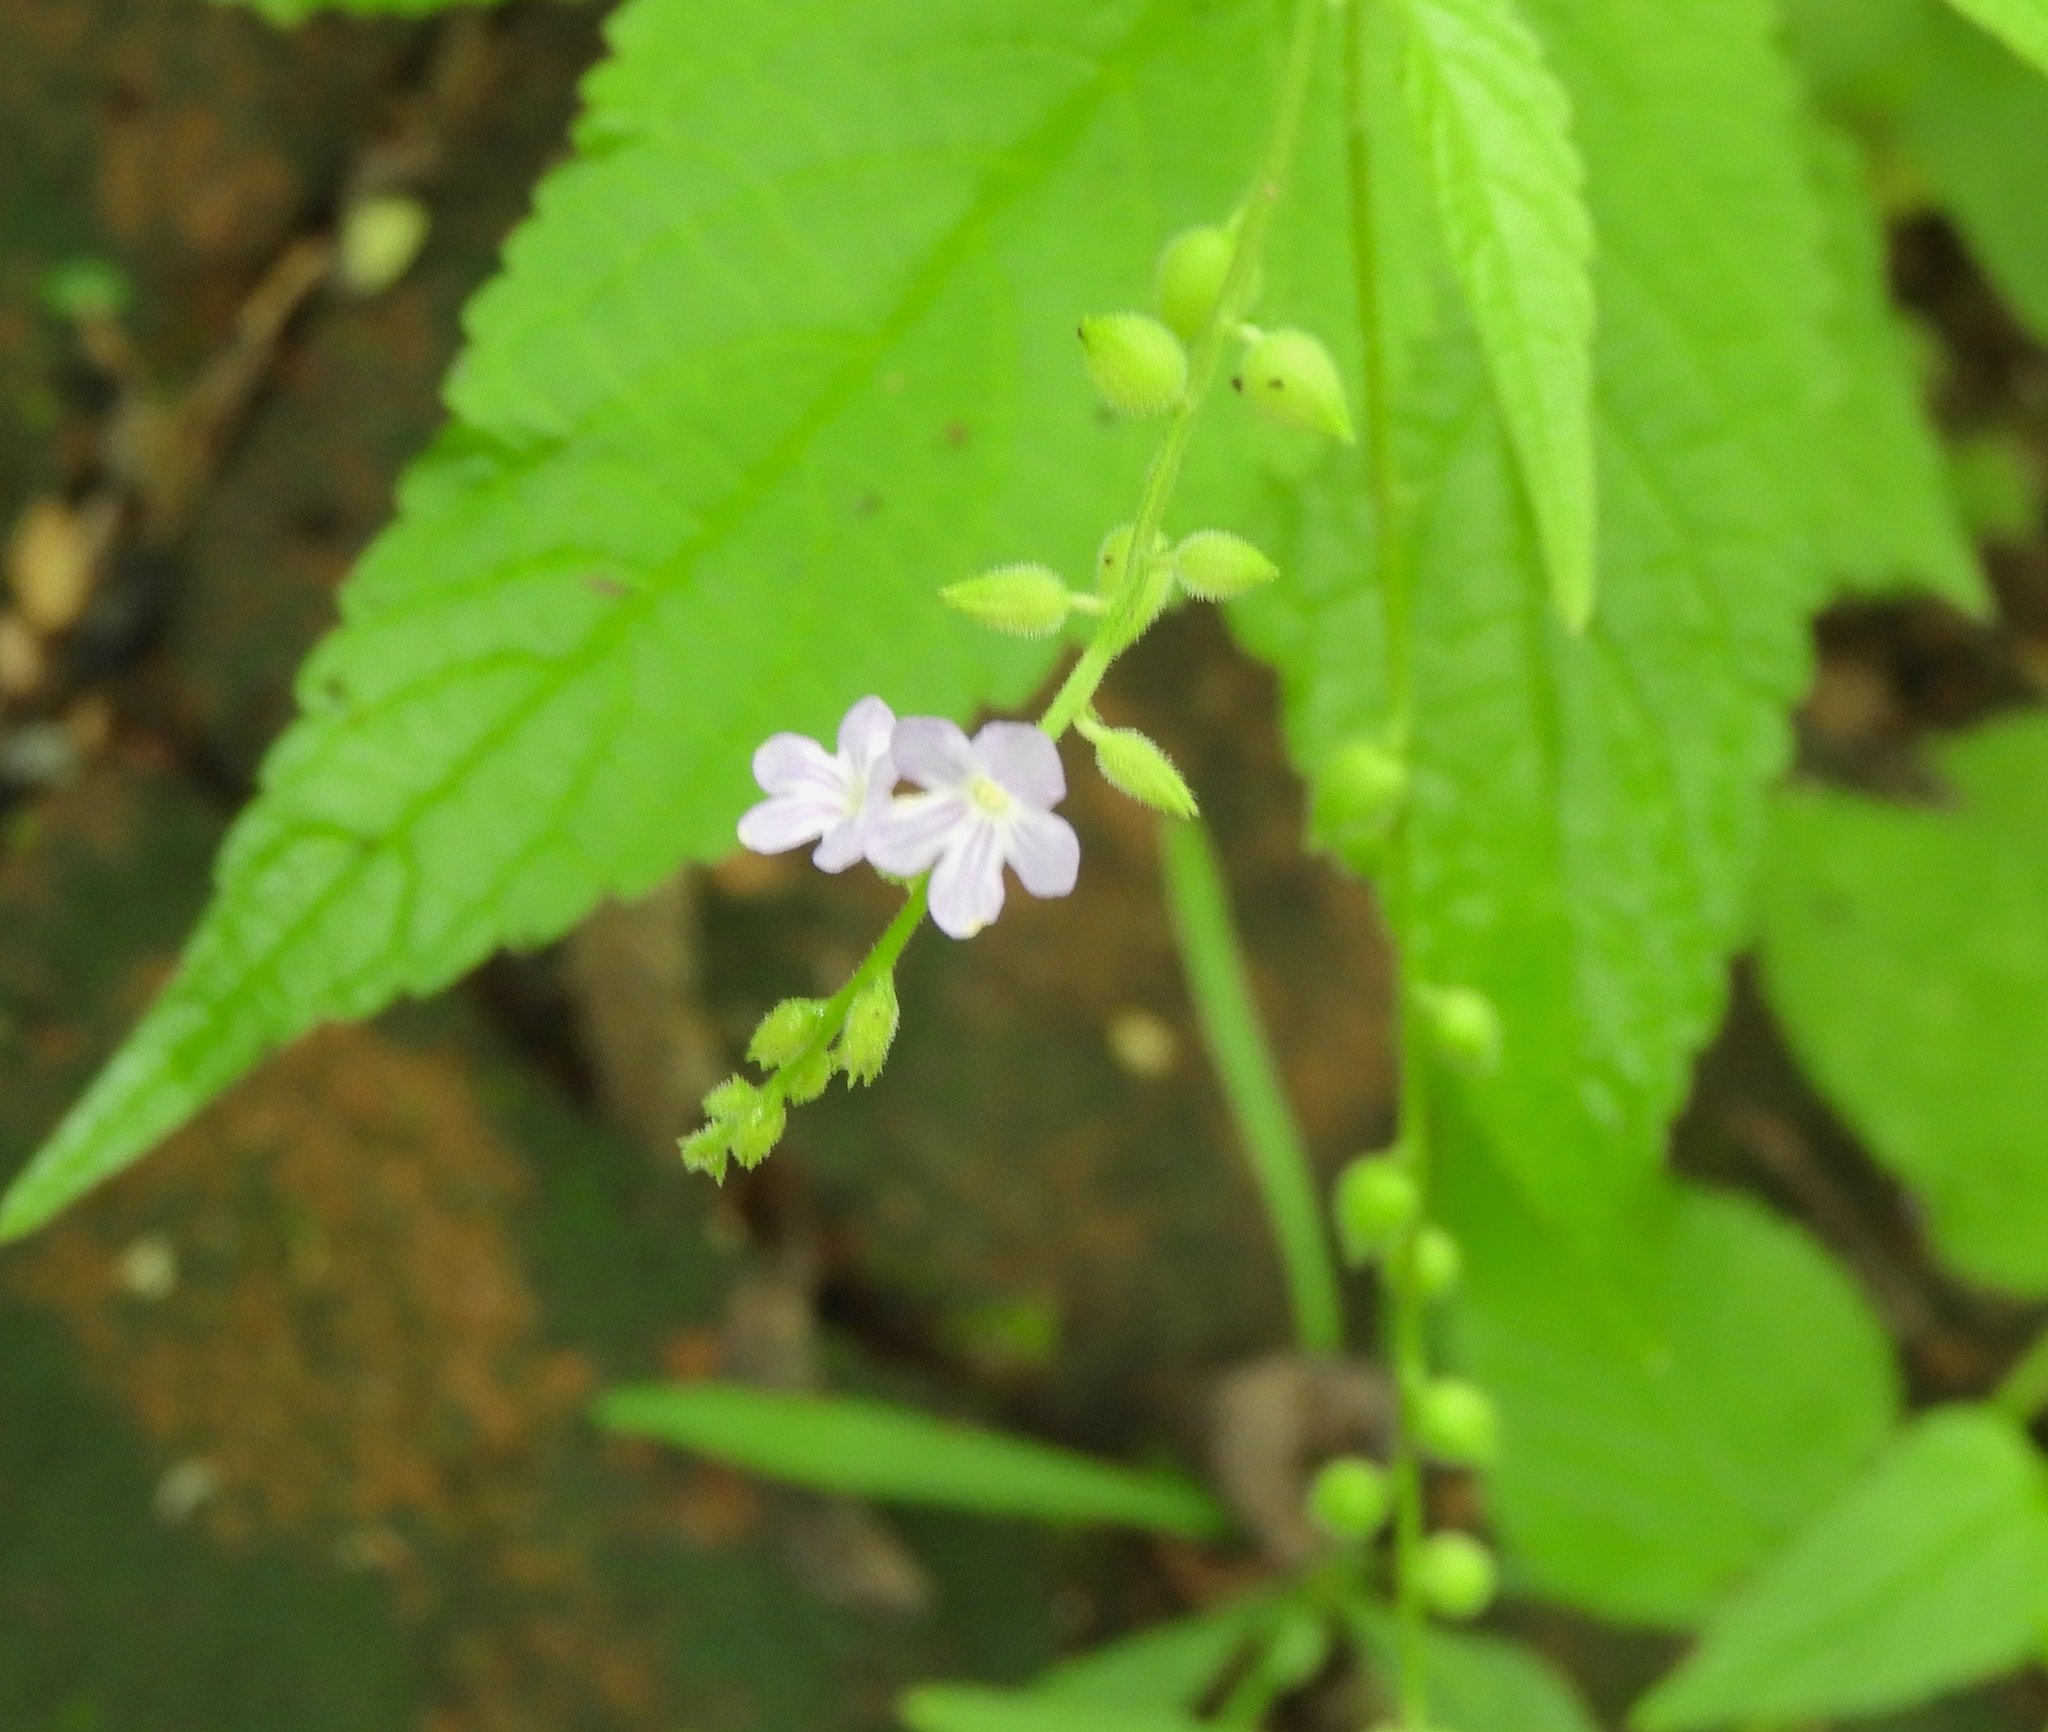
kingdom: Plantae
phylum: Tracheophyta
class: Magnoliopsida
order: Lamiales
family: Verbenaceae
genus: Priva
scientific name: Priva lappulacea
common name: Fasten-'pon-coat
